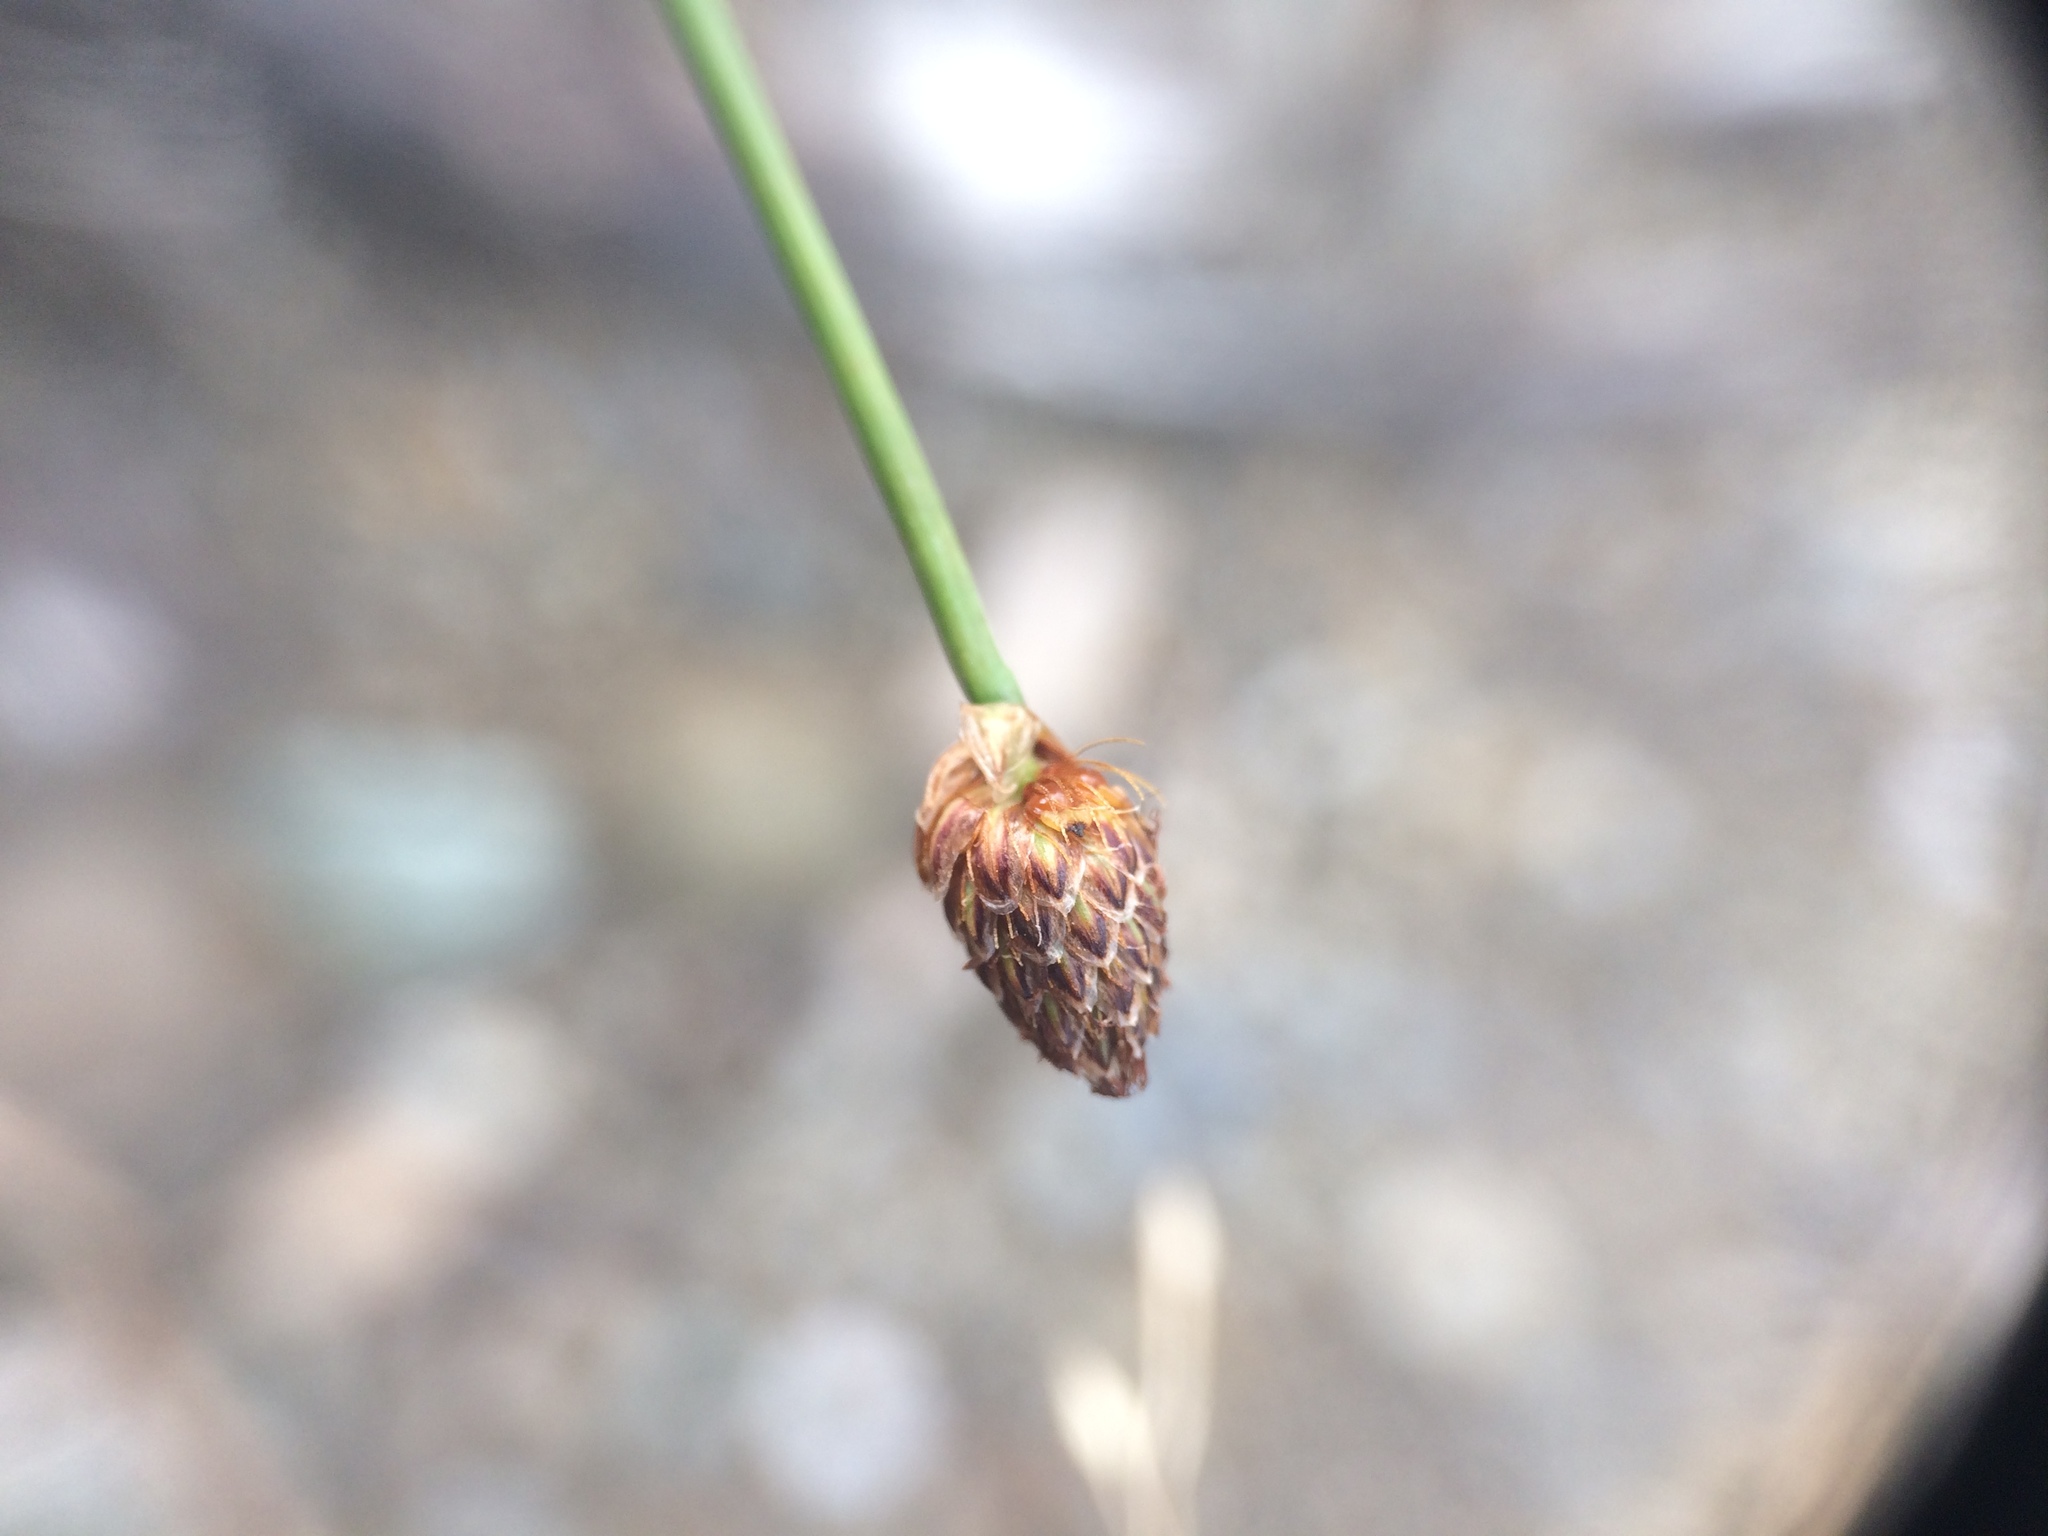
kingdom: Plantae
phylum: Tracheophyta
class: Liliopsida
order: Poales
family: Cyperaceae
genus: Eleocharis
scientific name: Eleocharis obtusa
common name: Blunt spikerush
